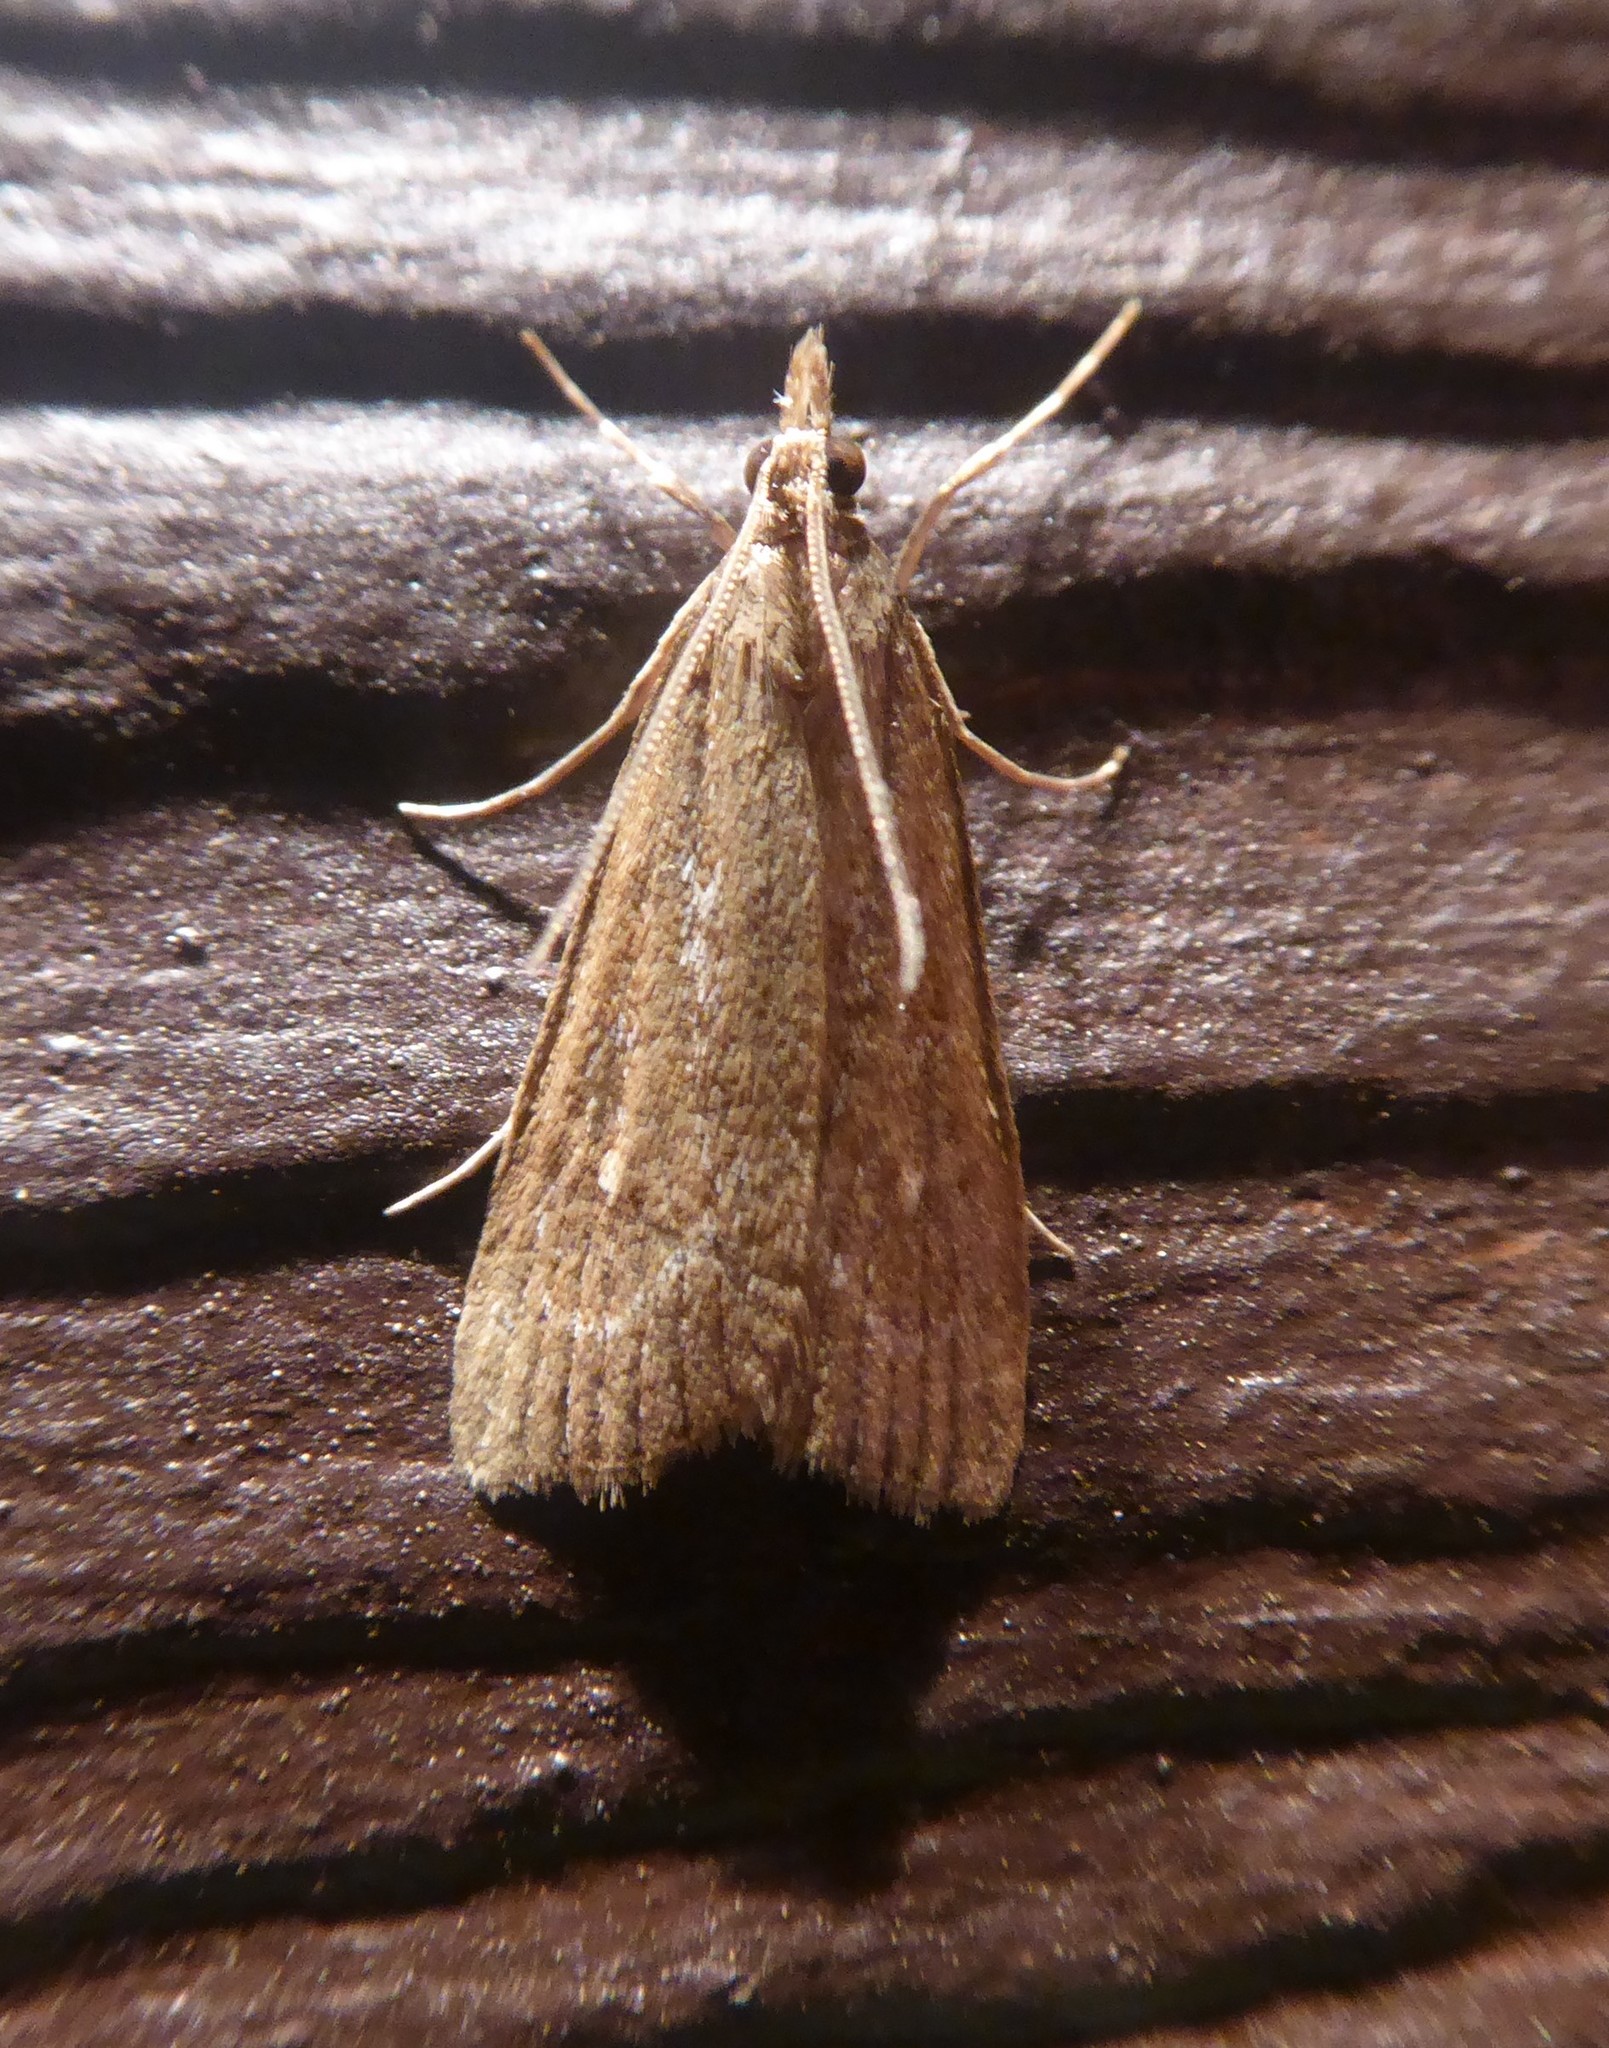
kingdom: Animalia
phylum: Arthropoda
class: Insecta
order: Lepidoptera
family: Crambidae
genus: Eudonia
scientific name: Eudonia octophora
